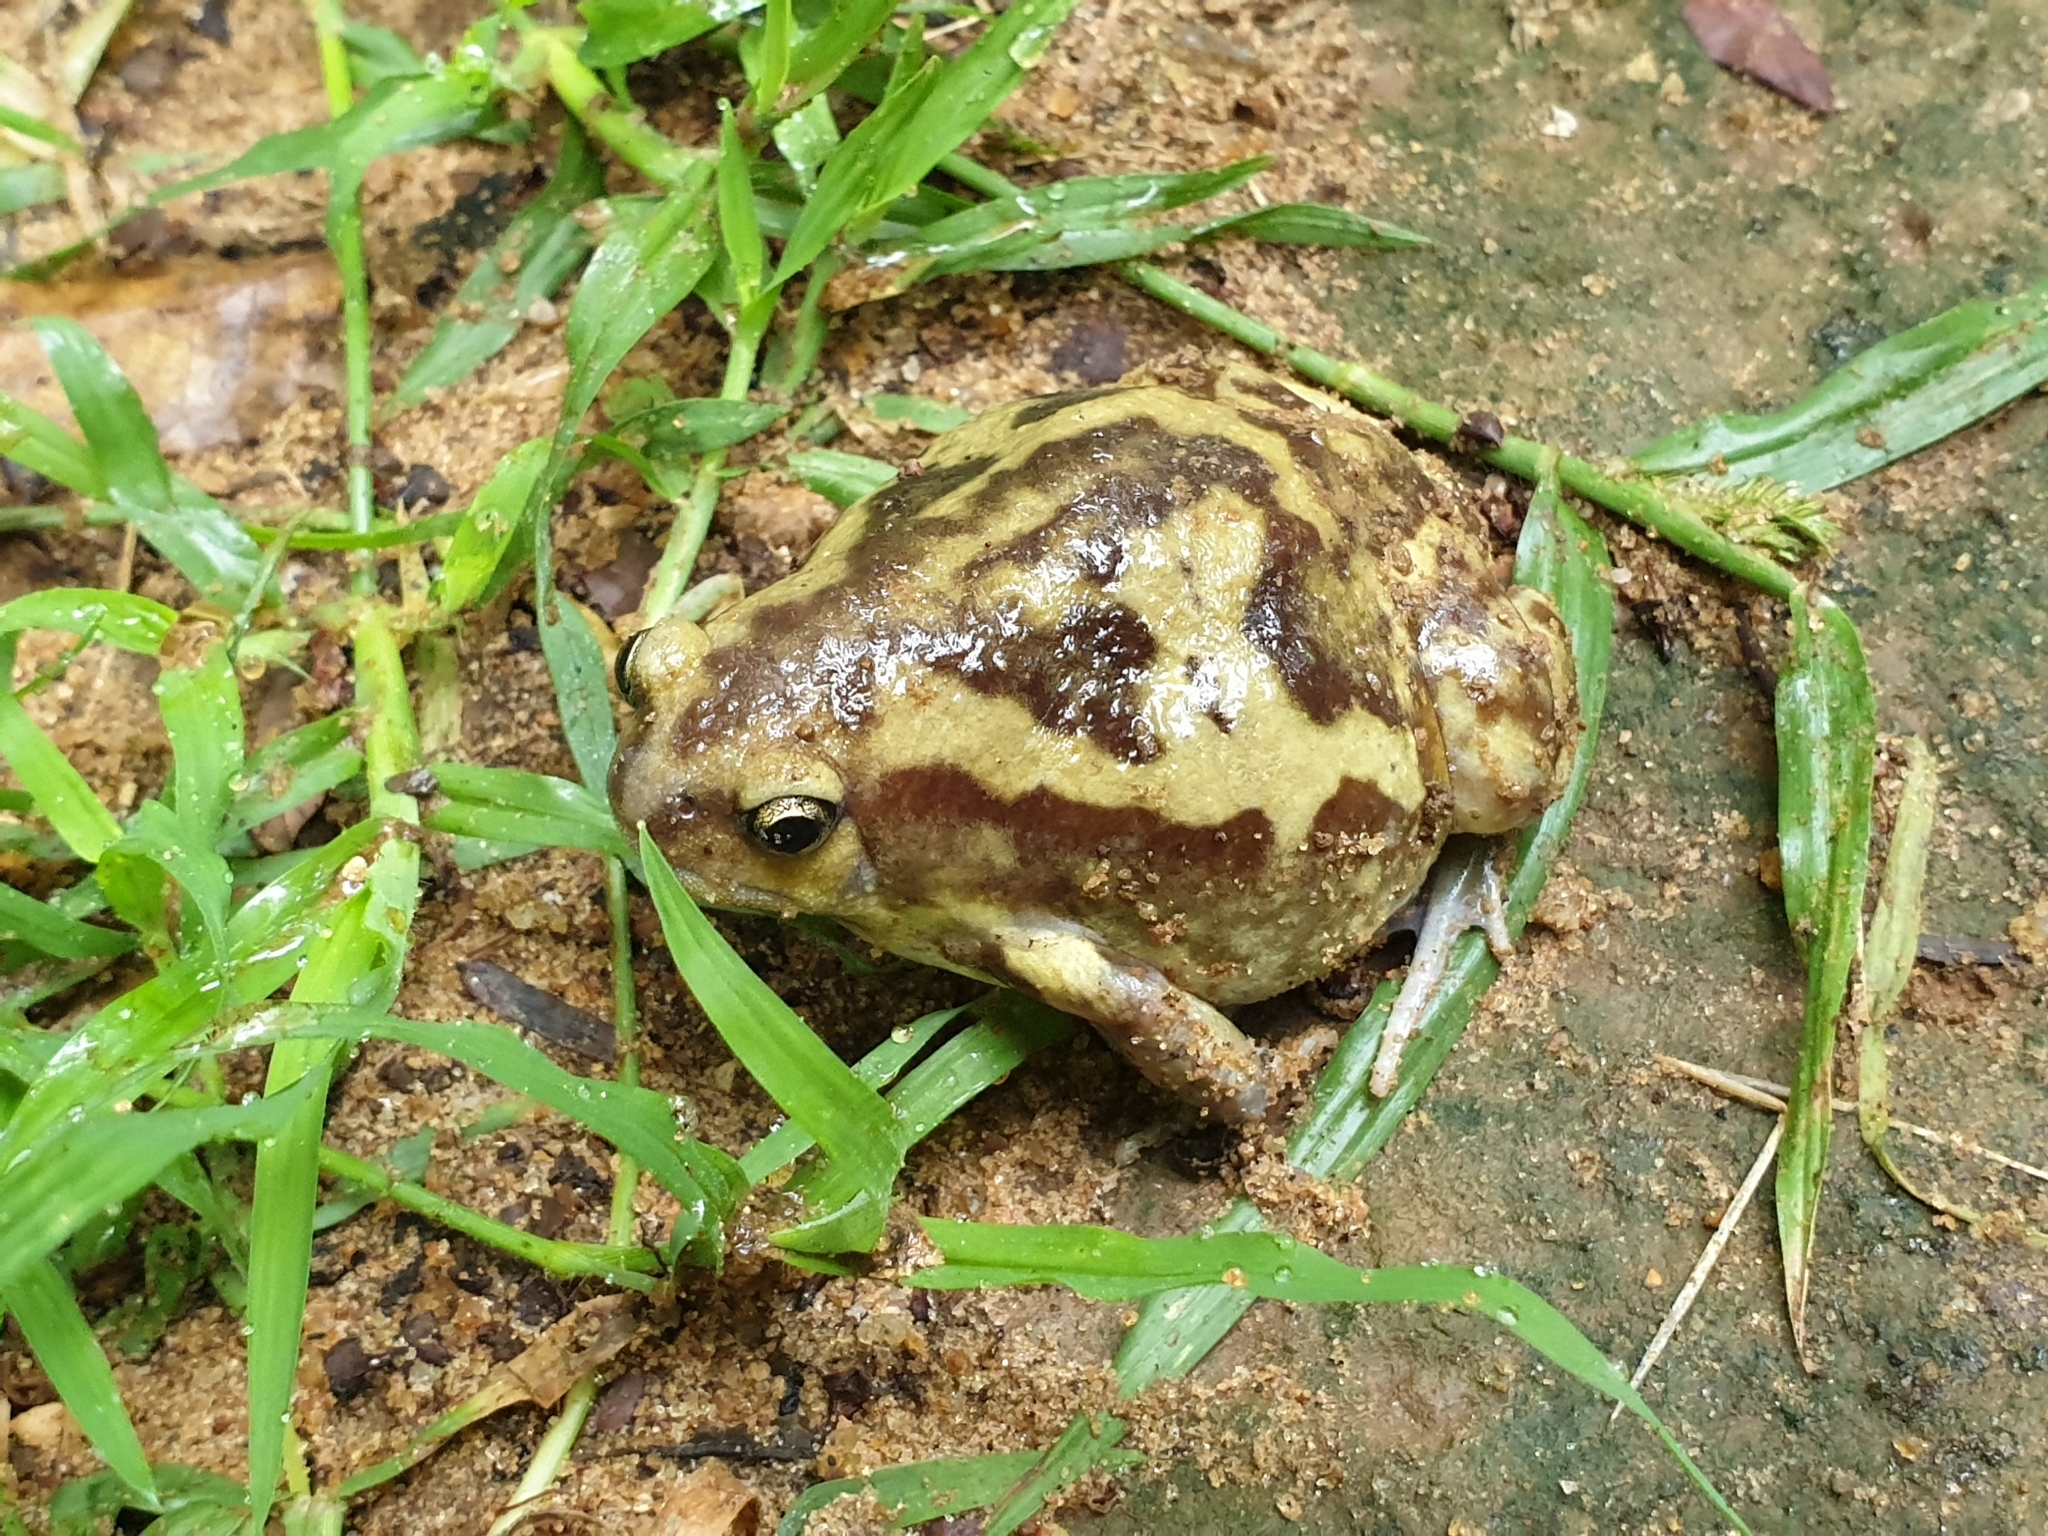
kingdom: Animalia
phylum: Chordata
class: Amphibia
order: Anura
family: Microhylidae
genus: Uperodon
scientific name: Uperodon systoma
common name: Balloon frog
